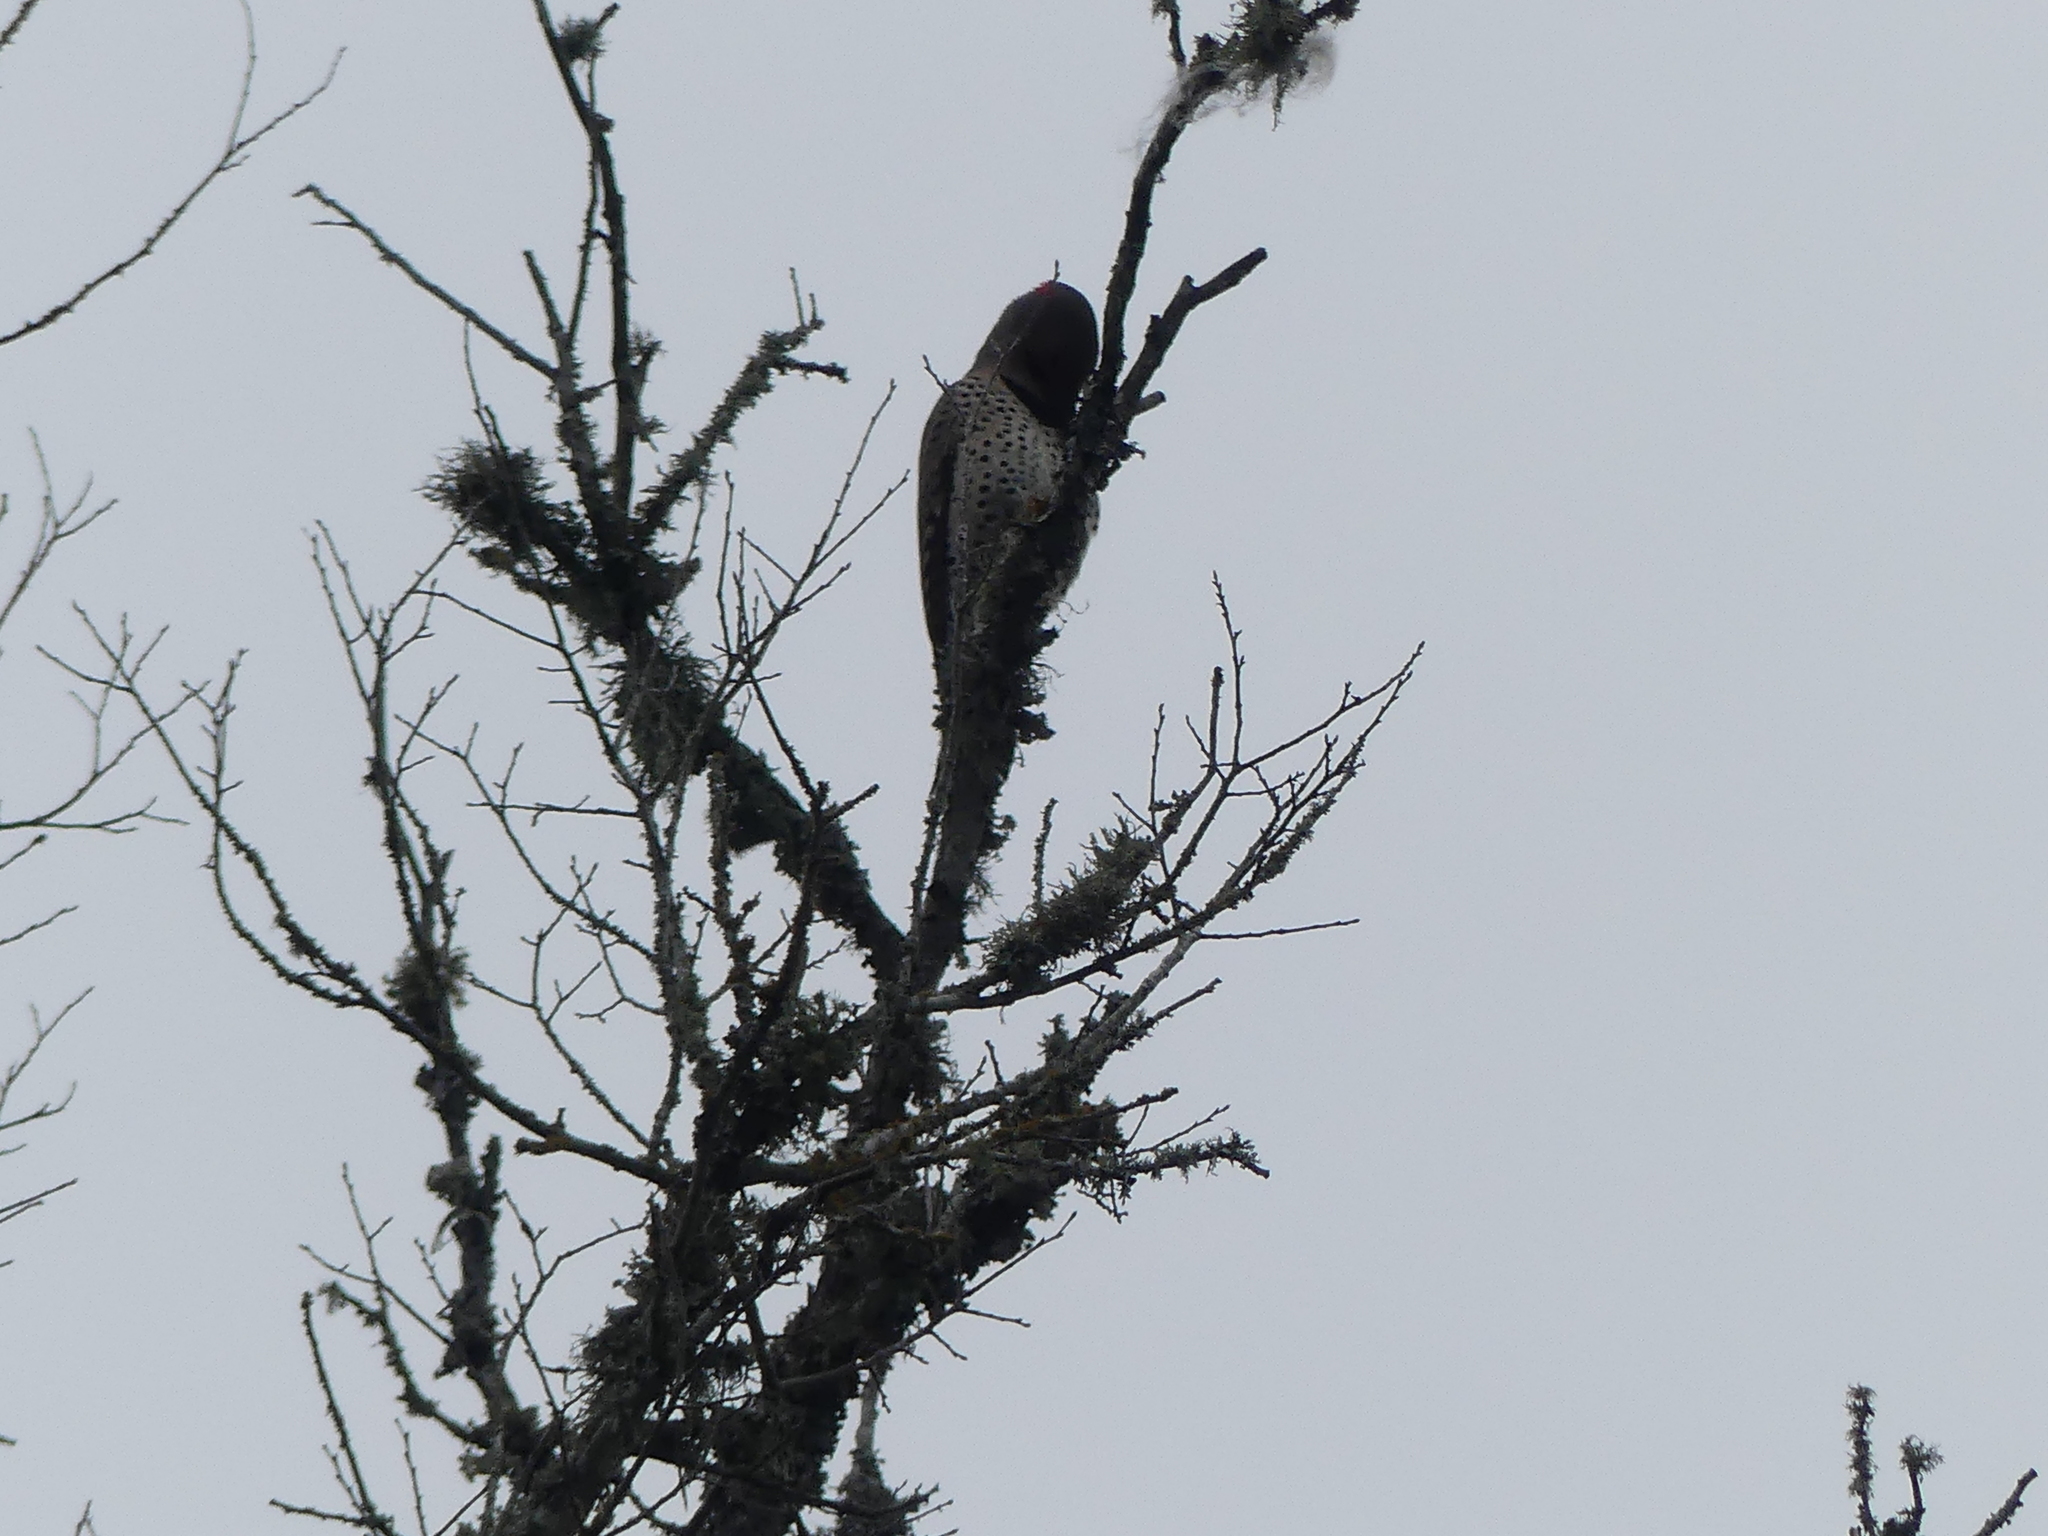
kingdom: Animalia
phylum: Chordata
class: Aves
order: Piciformes
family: Picidae
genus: Colaptes
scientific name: Colaptes auratus
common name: Northern flicker
